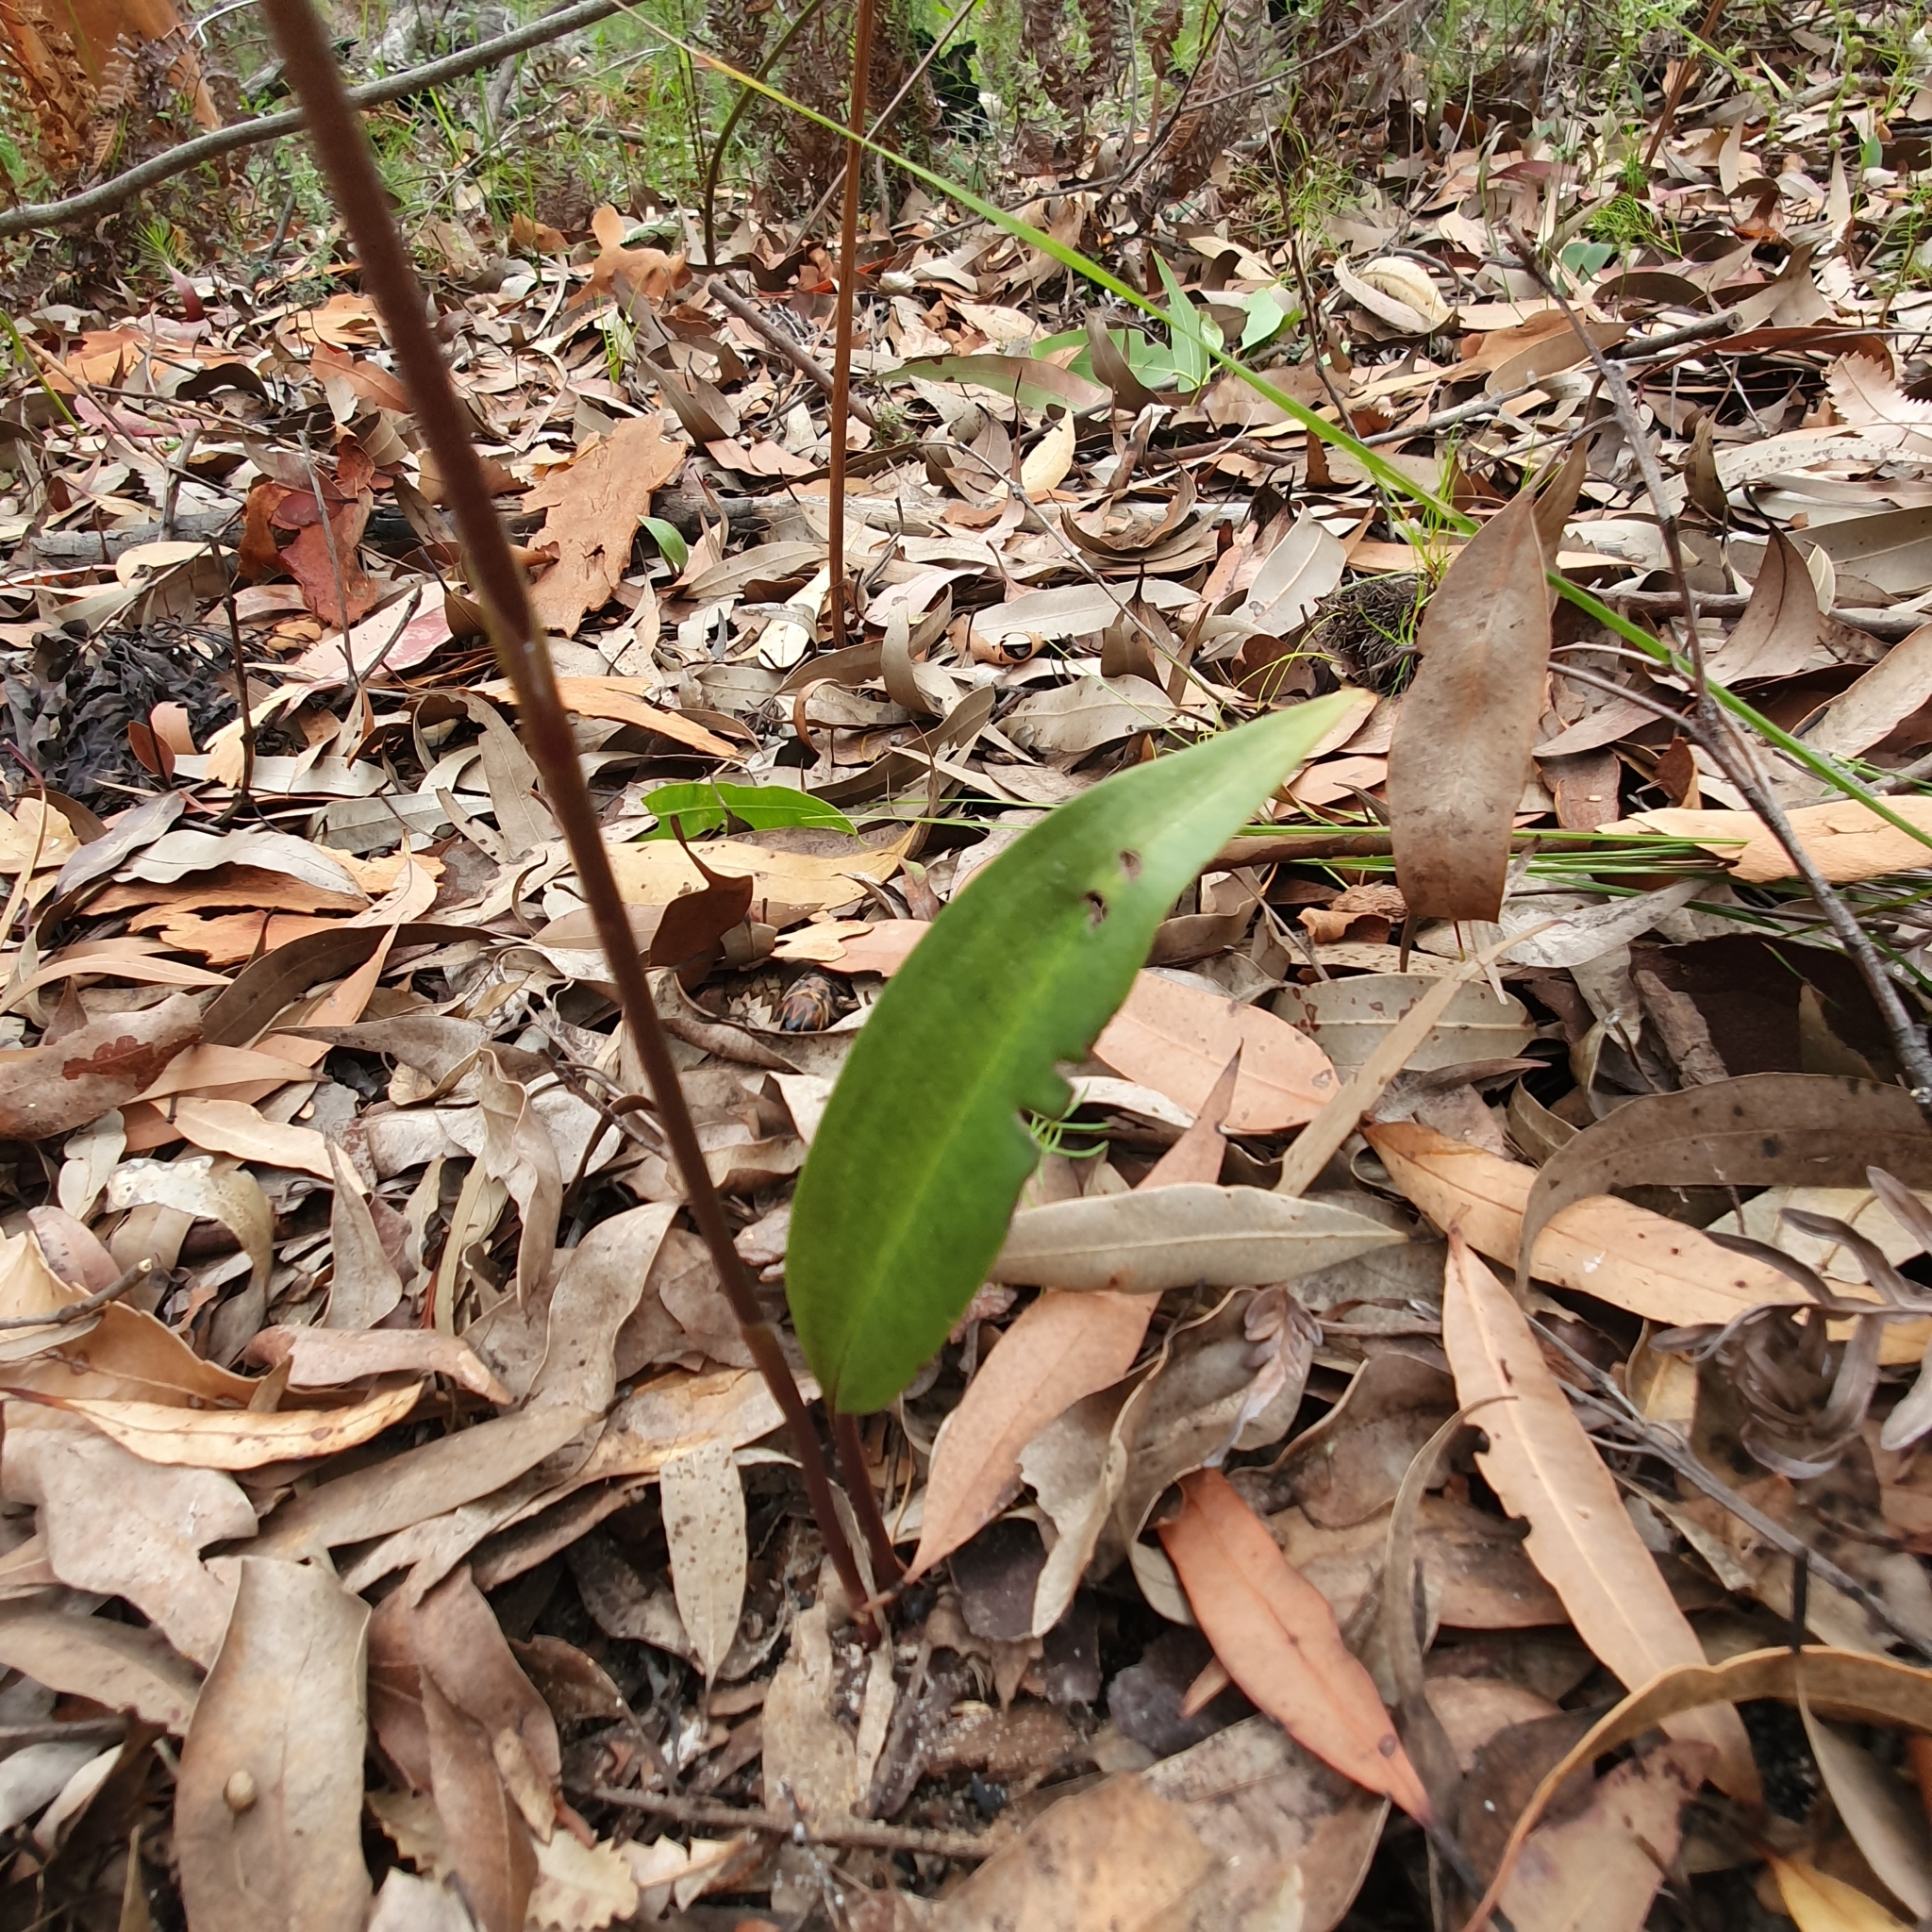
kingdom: Plantae
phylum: Tracheophyta
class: Liliopsida
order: Asparagales
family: Orchidaceae
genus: Cryptostylis
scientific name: Cryptostylis erecta
